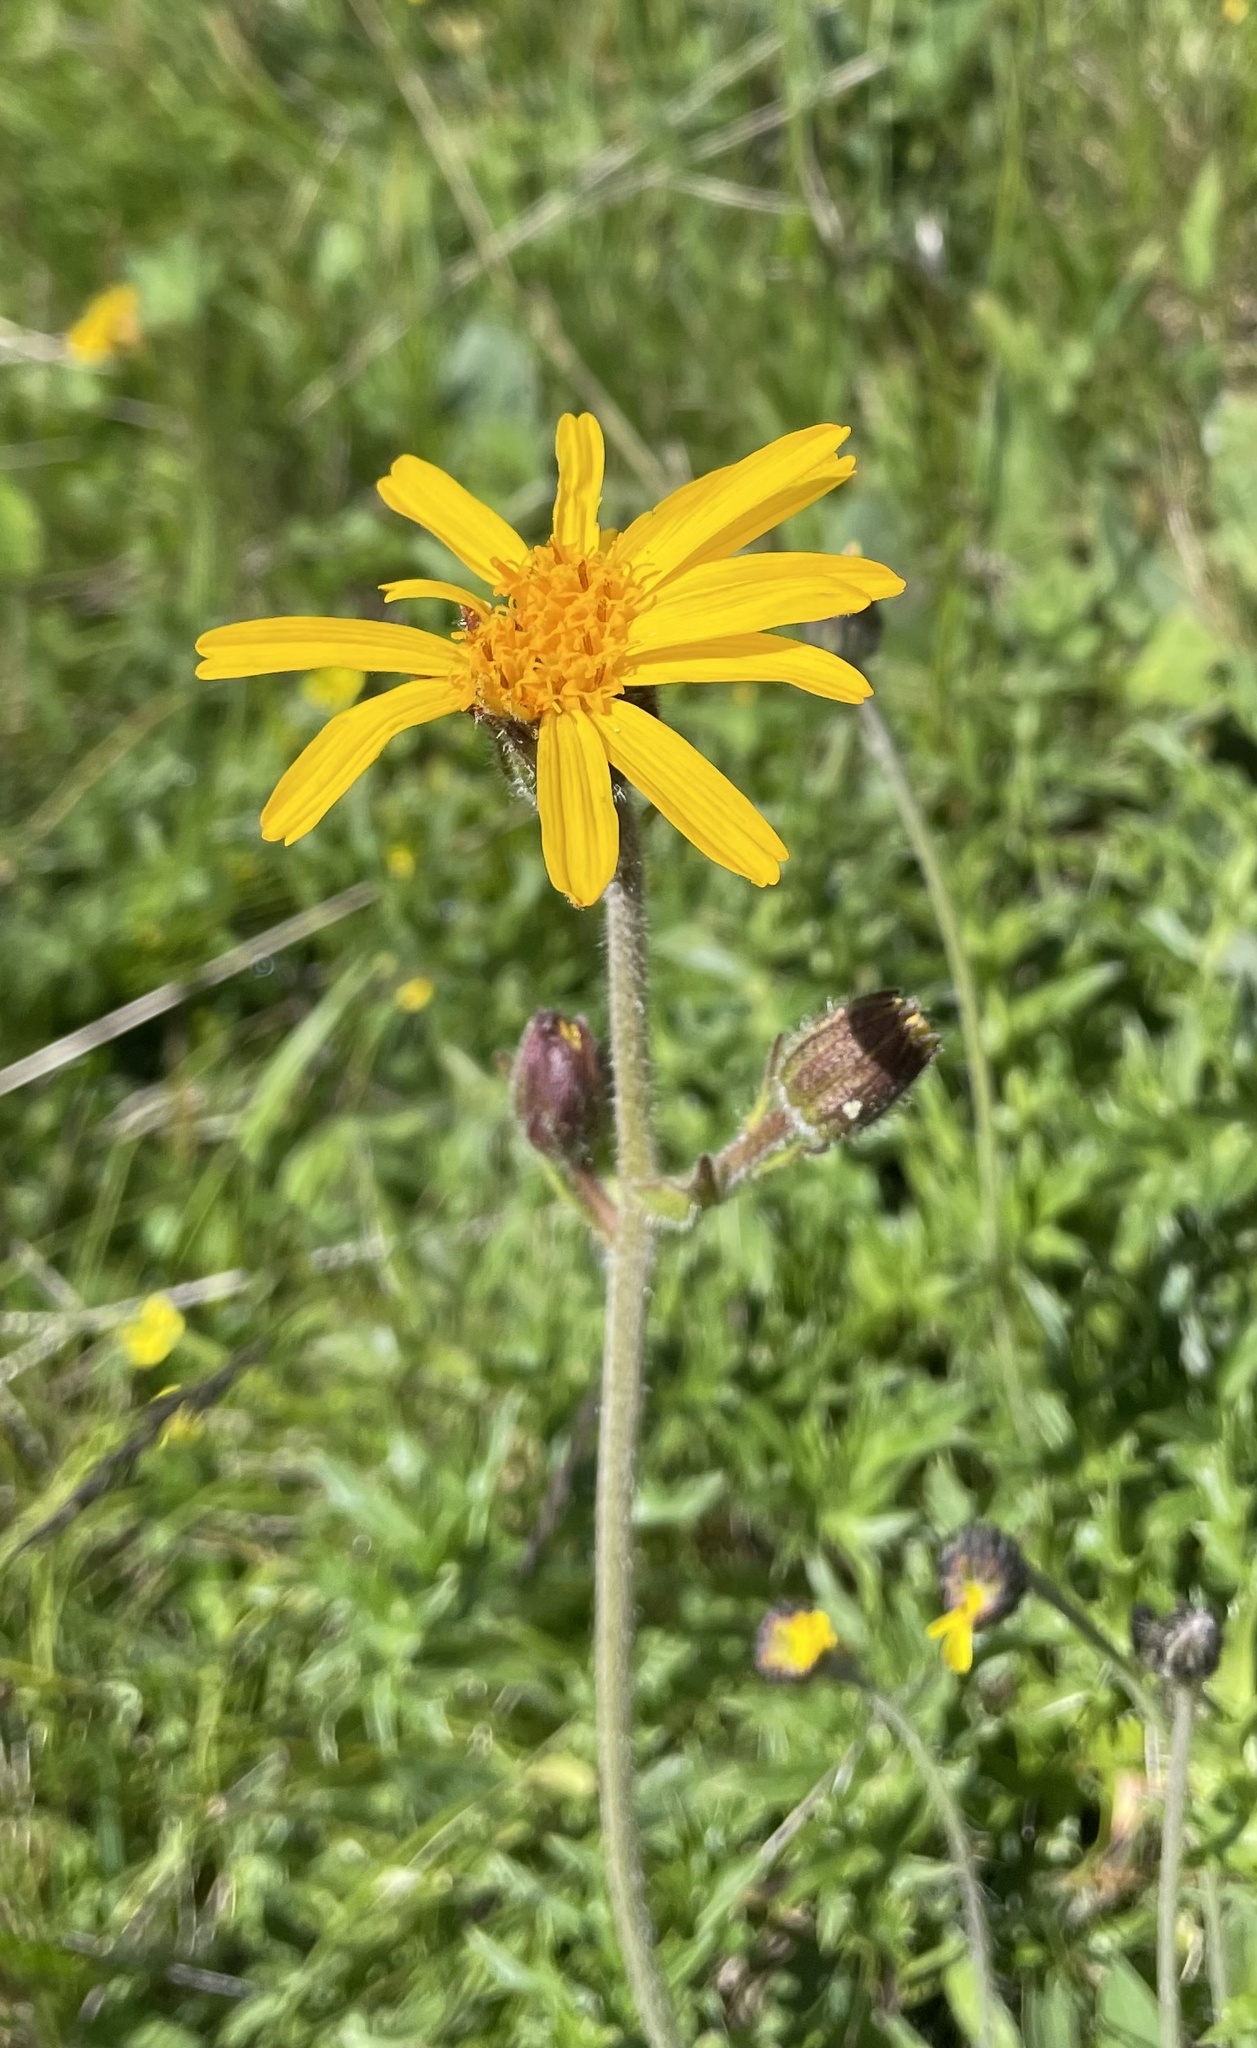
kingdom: Plantae
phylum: Tracheophyta
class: Magnoliopsida
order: Asterales
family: Asteraceae
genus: Arnica
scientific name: Arnica montana
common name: Leopard's bane
